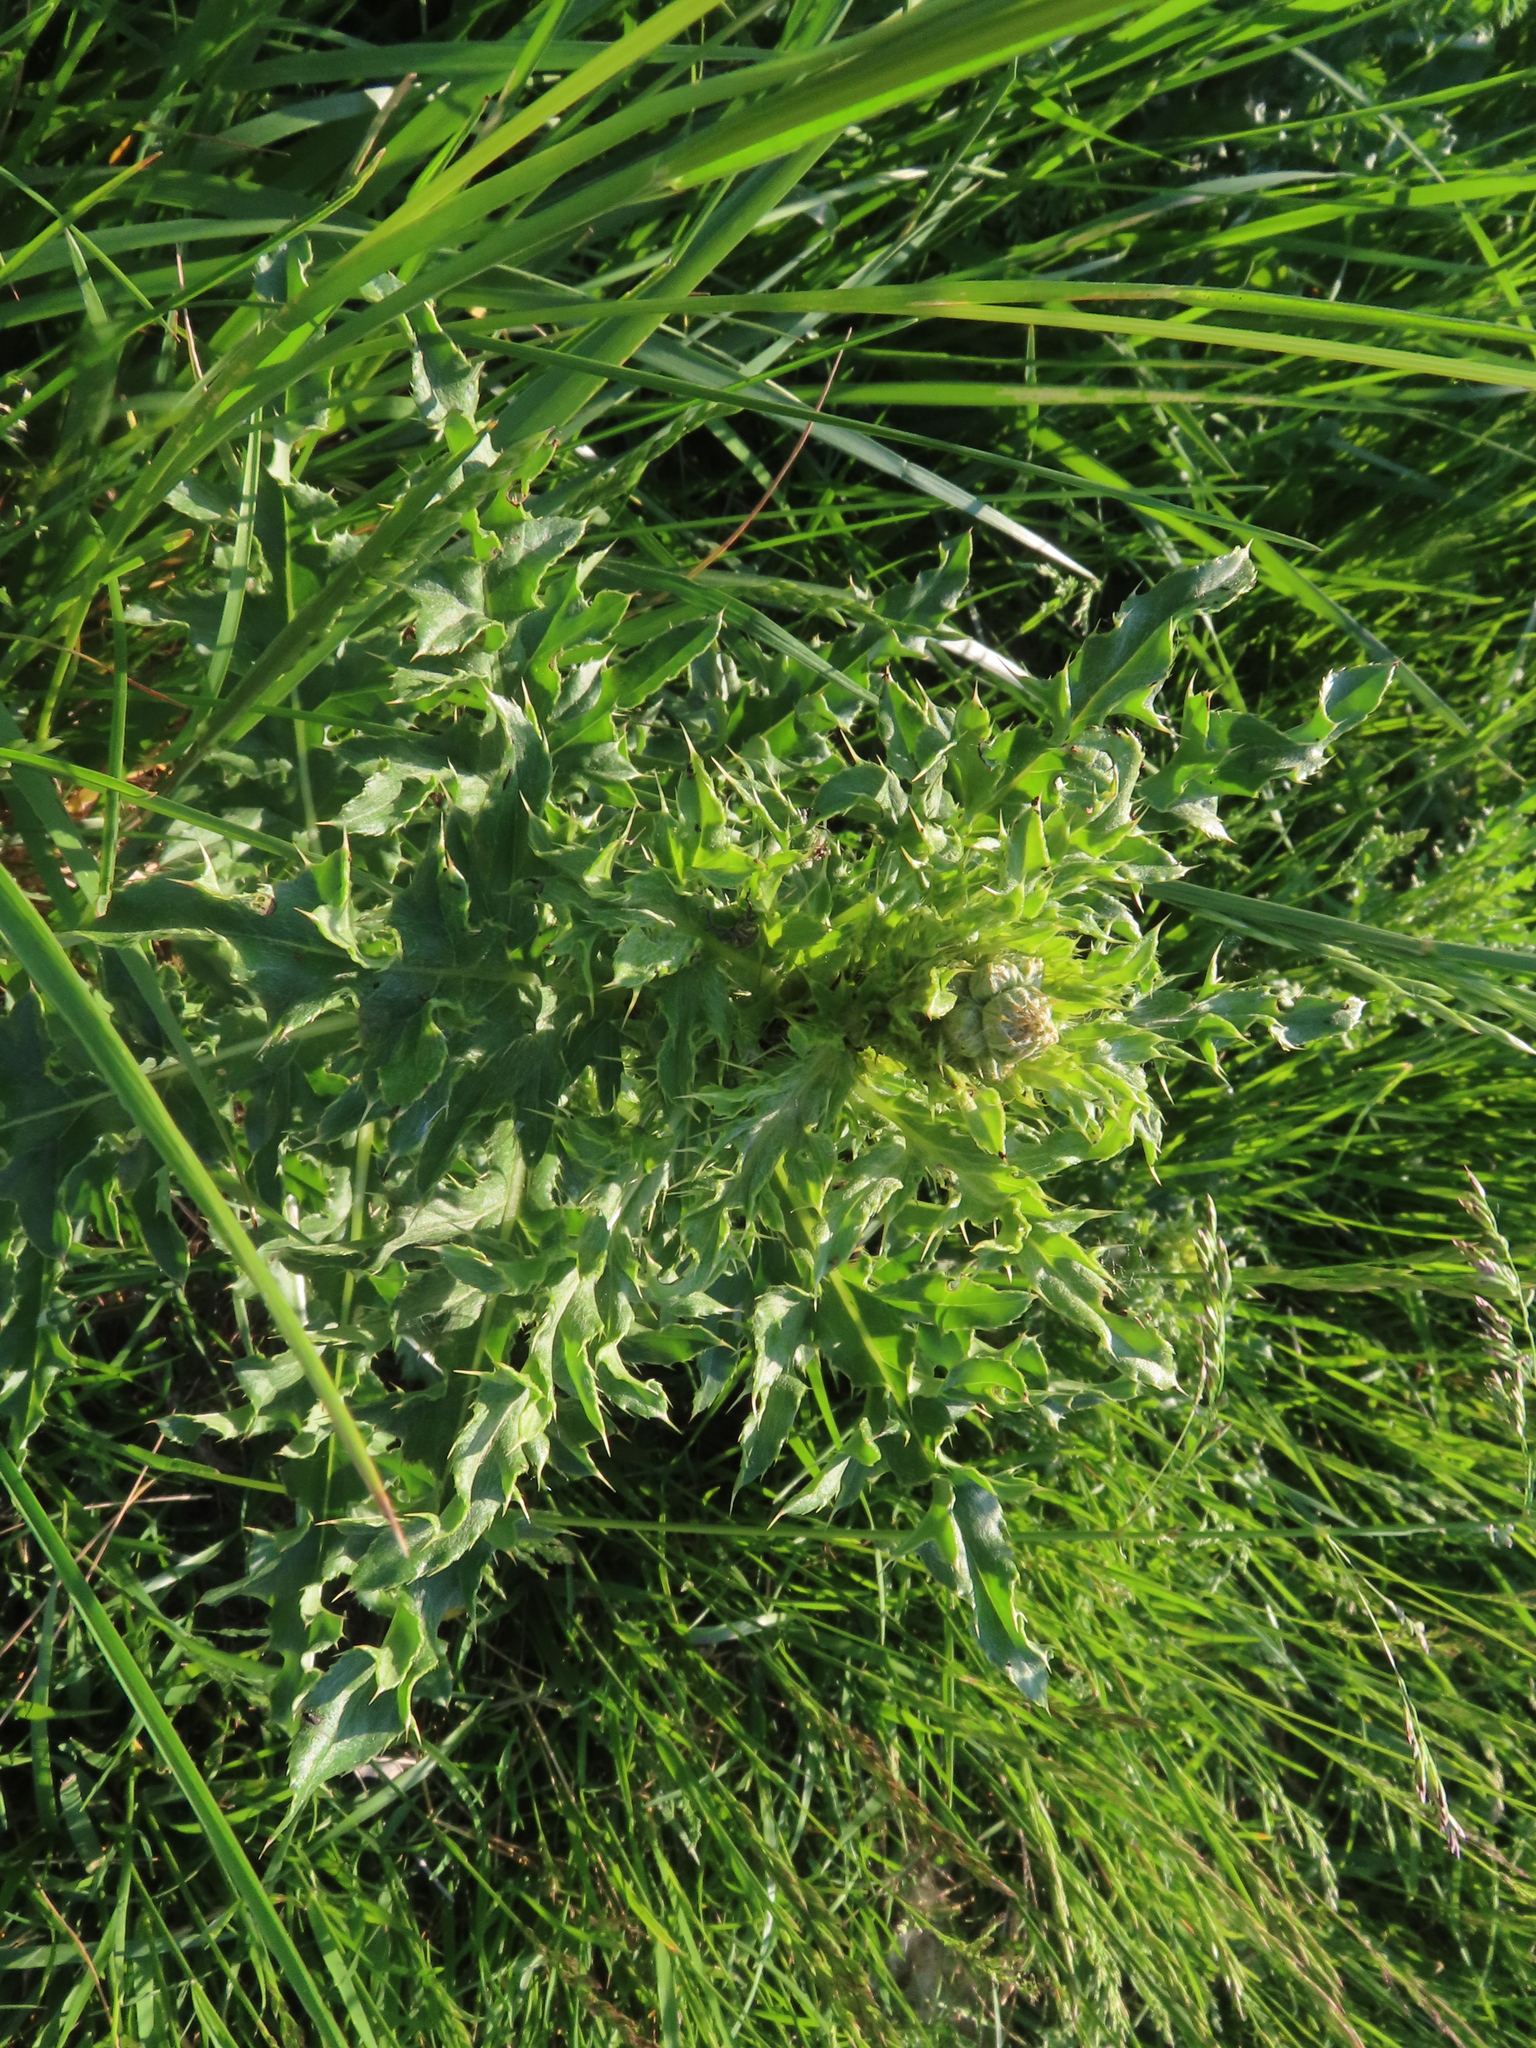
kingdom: Plantae
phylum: Tracheophyta
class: Magnoliopsida
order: Asterales
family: Asteraceae
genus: Cirsium
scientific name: Cirsium arvense
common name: Creeping thistle
